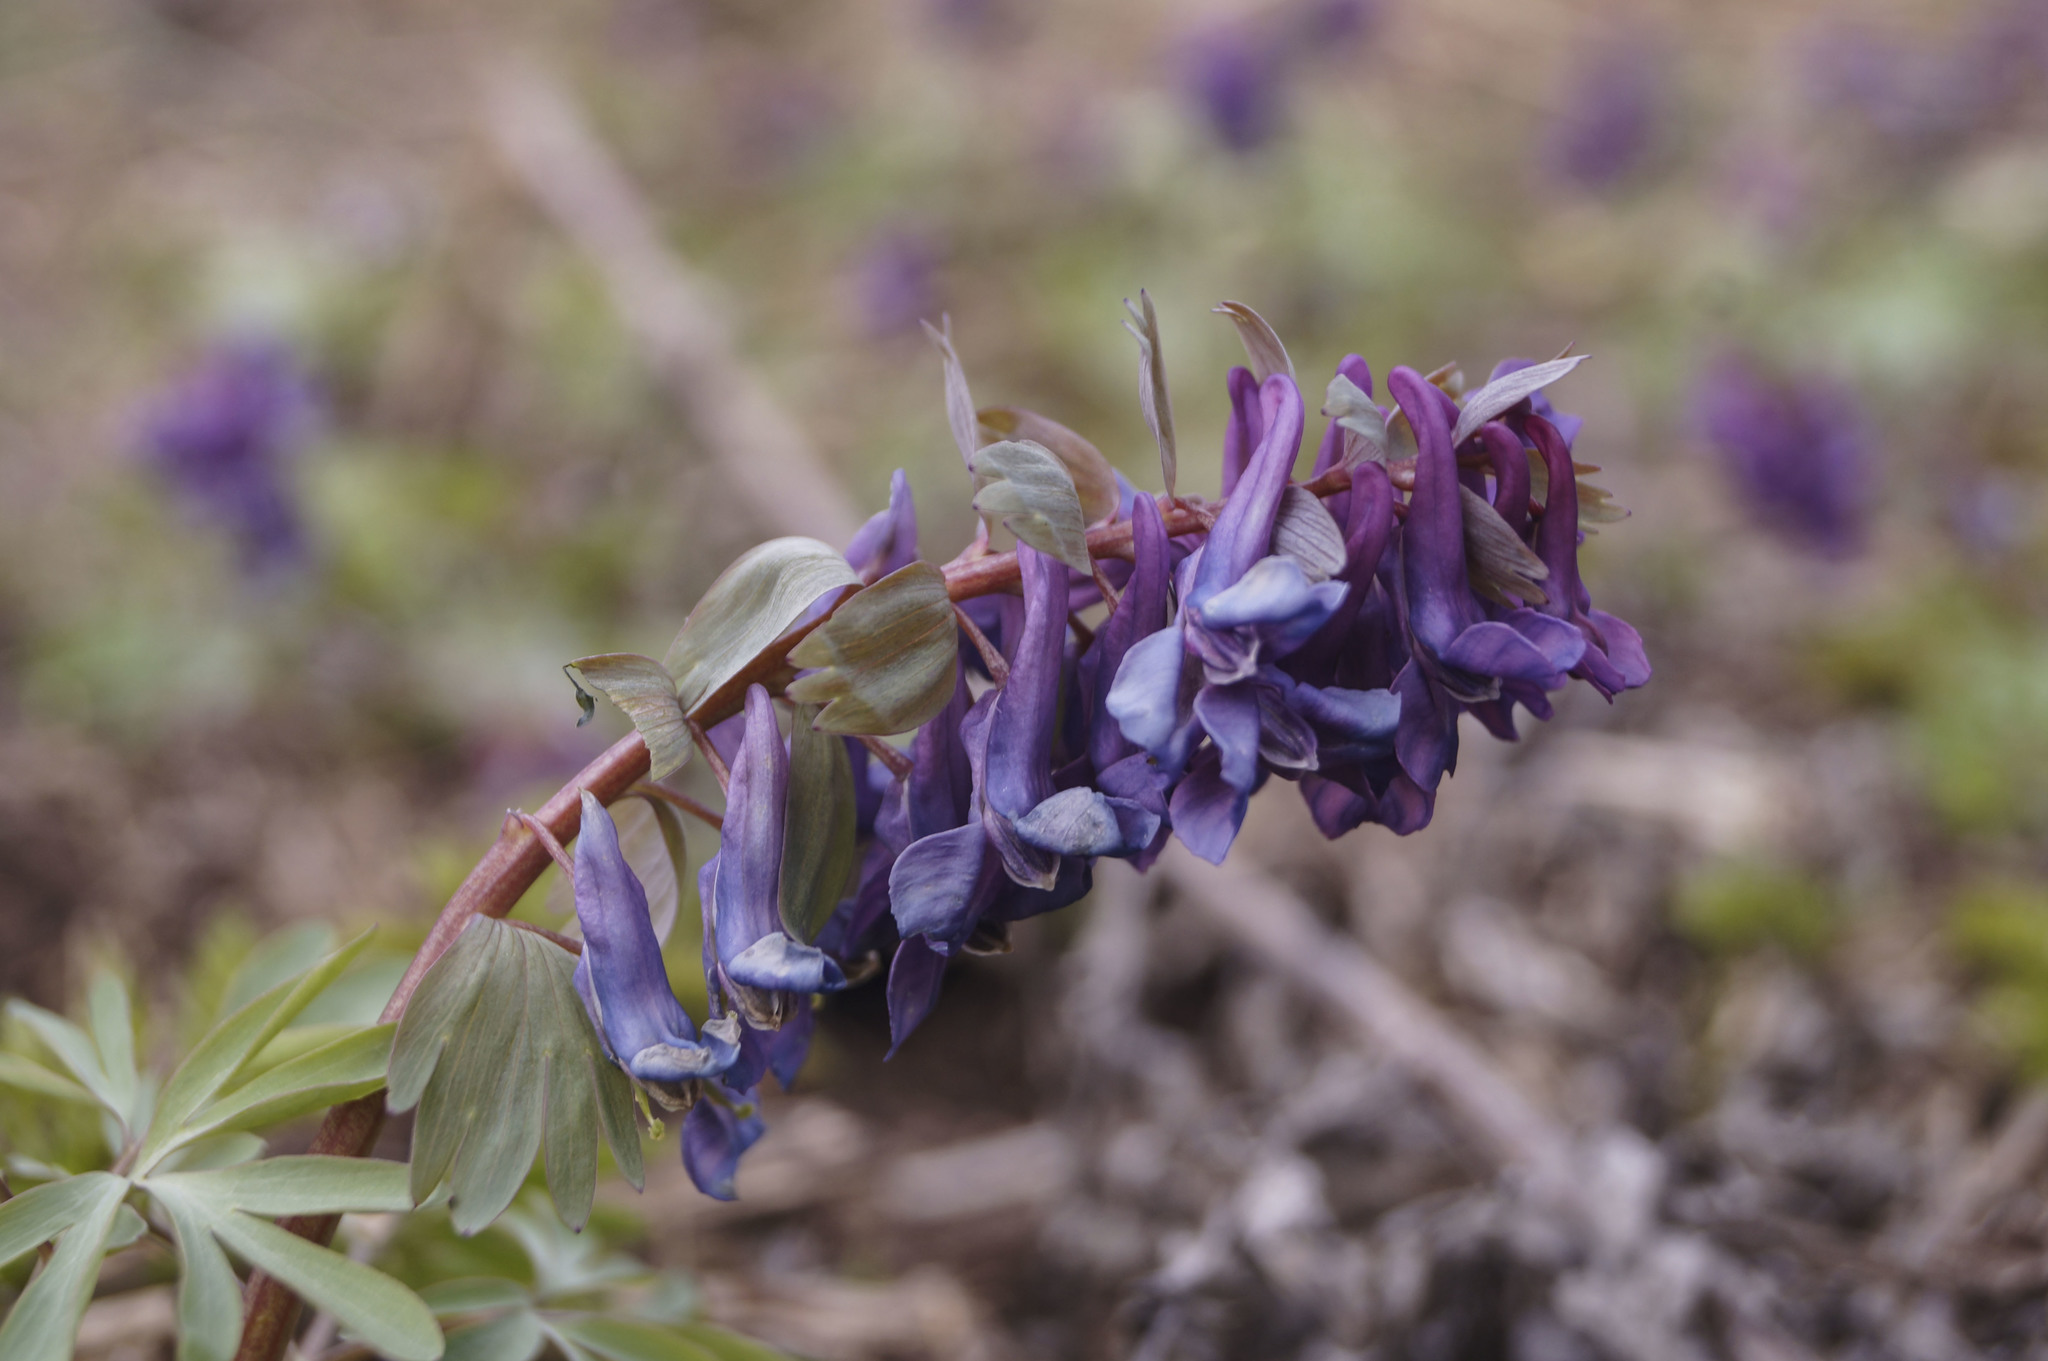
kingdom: Plantae
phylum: Tracheophyta
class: Magnoliopsida
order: Ranunculales
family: Papaveraceae
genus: Corydalis
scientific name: Corydalis solida
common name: Bird-in-a-bush
